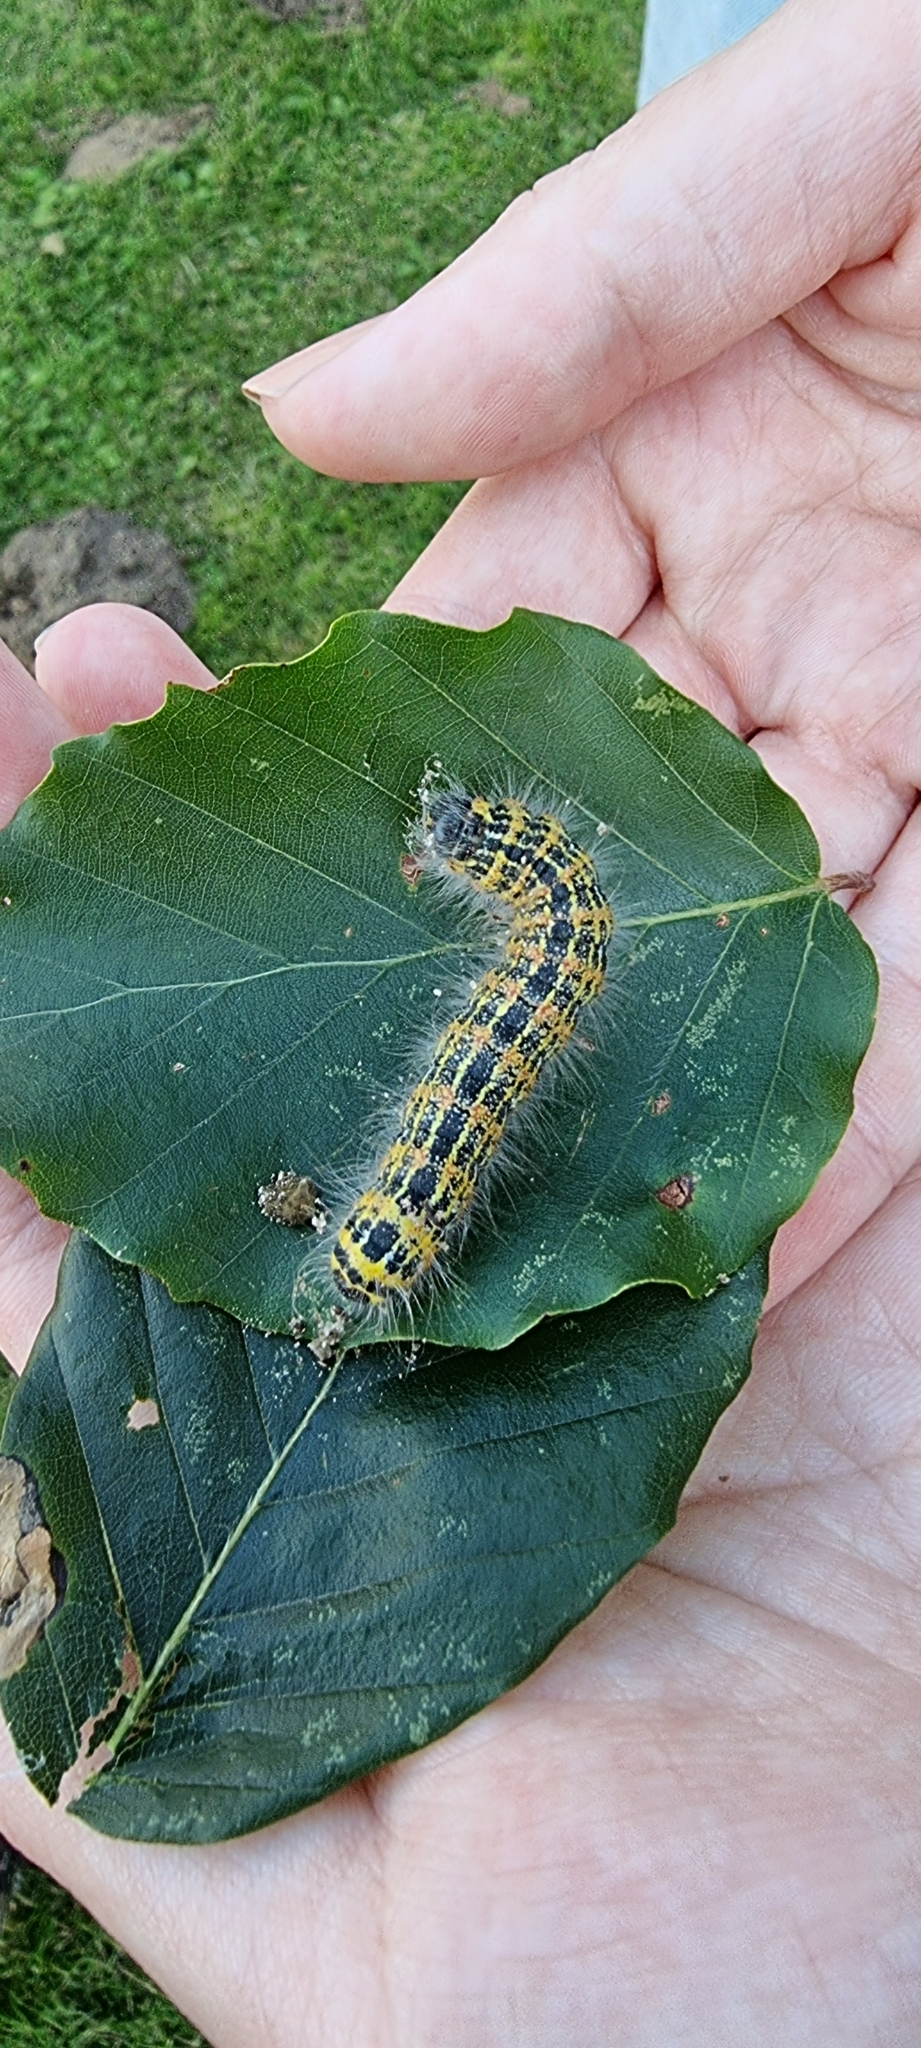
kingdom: Animalia
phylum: Arthropoda
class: Insecta
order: Lepidoptera
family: Notodontidae
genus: Phalera
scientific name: Phalera bucephala
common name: Buff-tip
